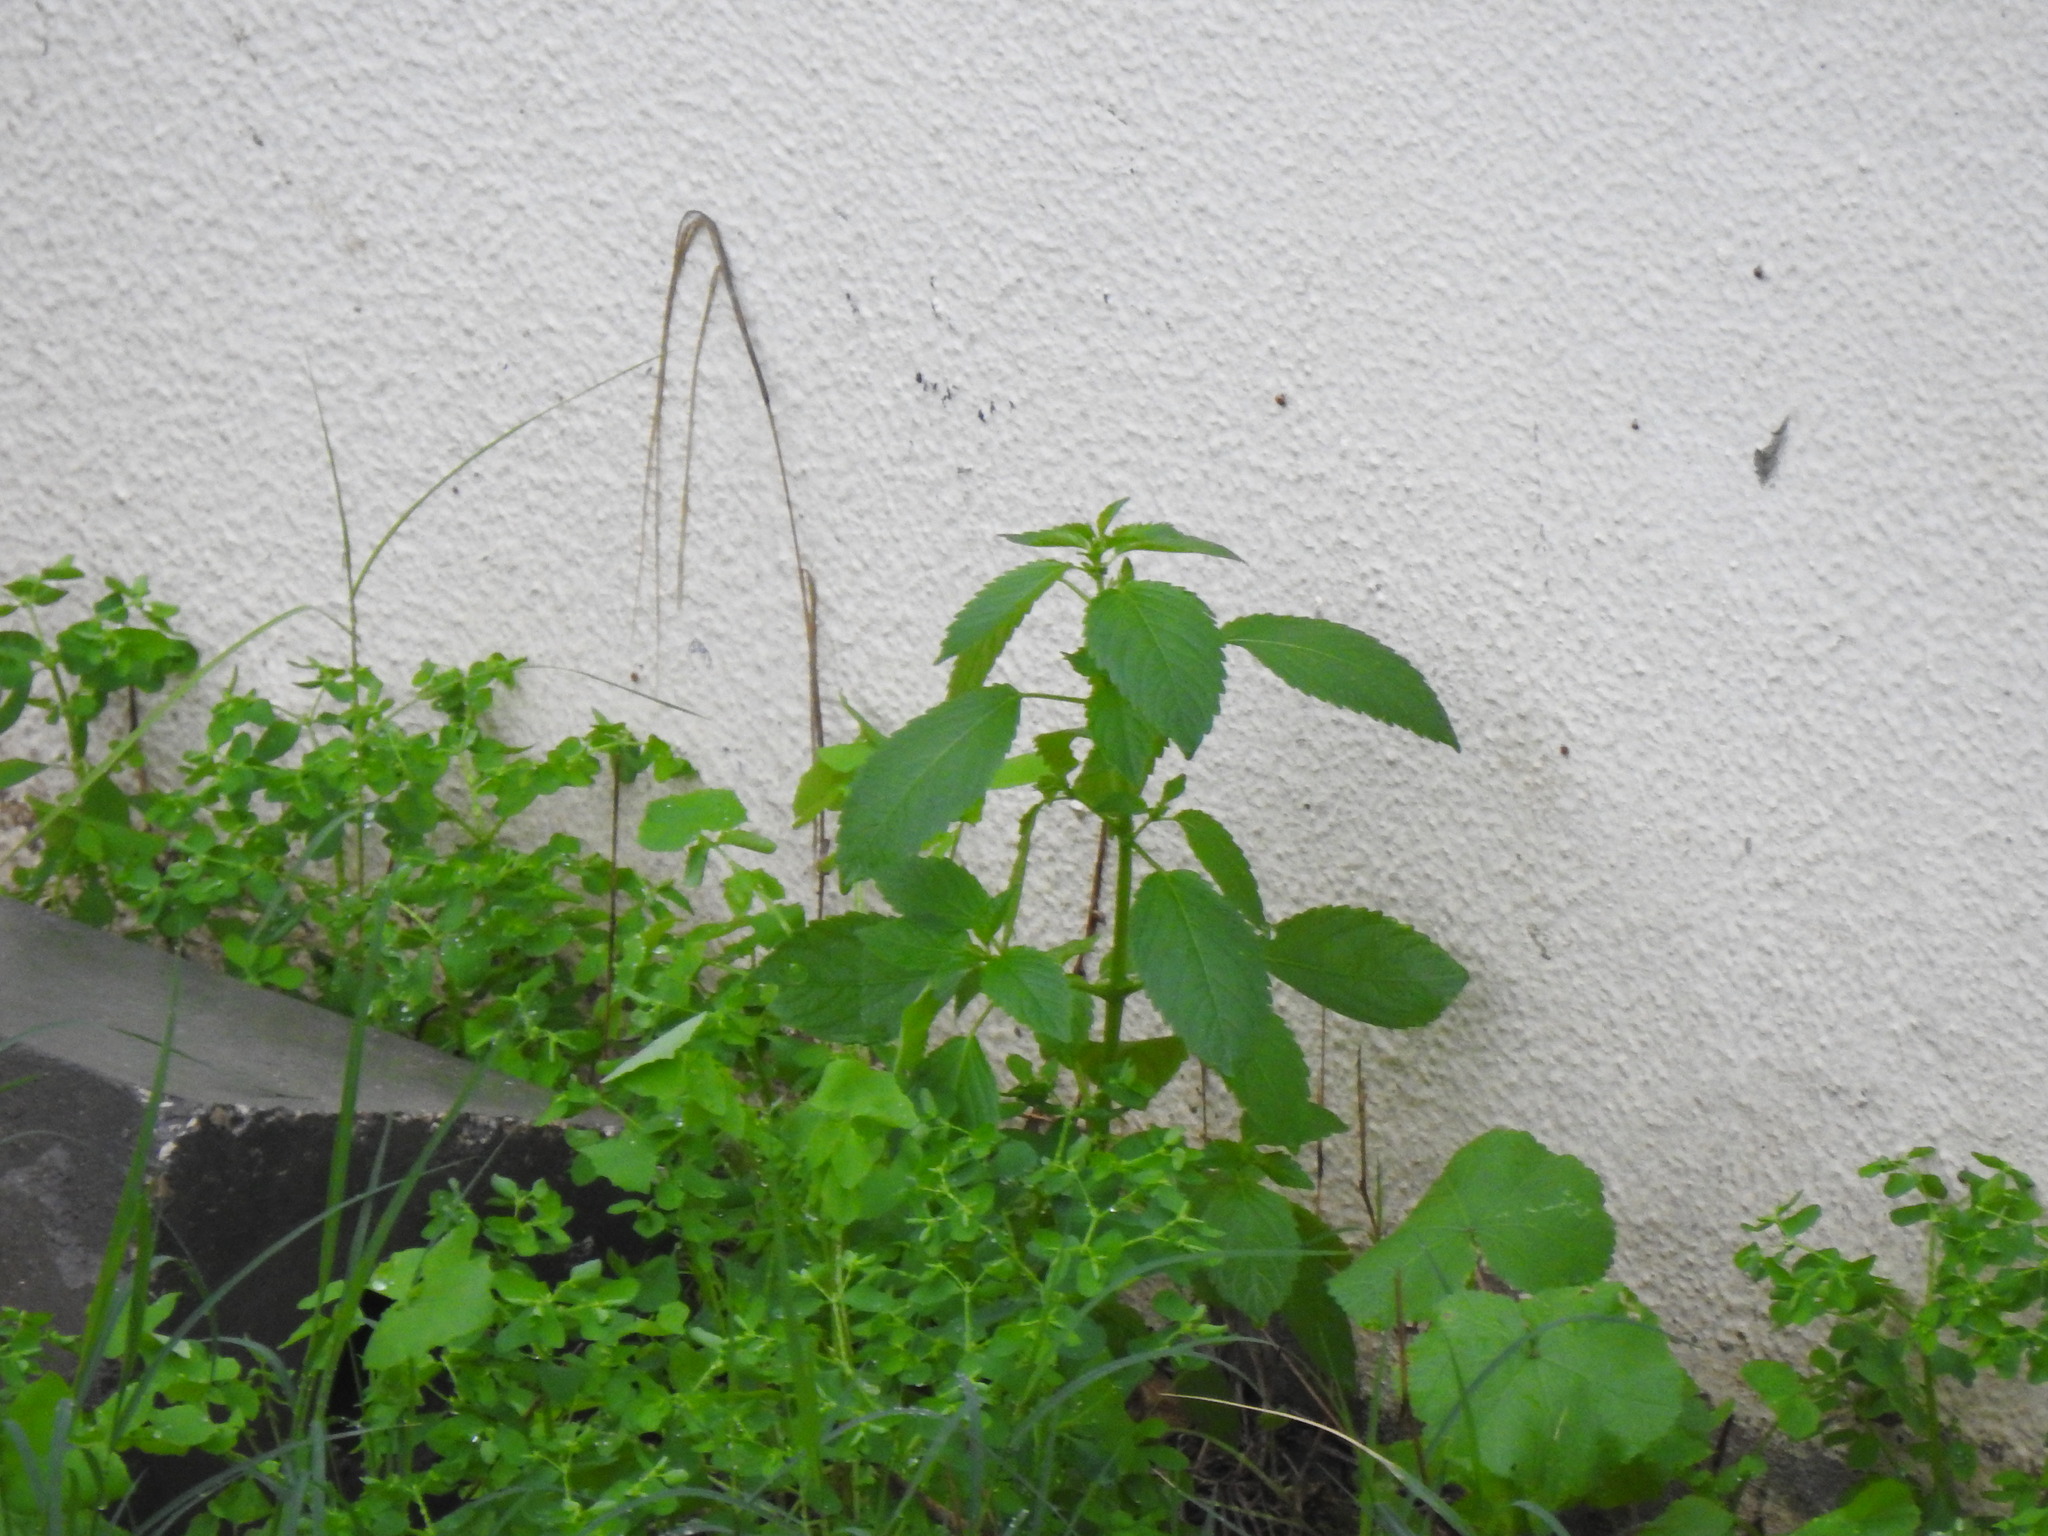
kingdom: Plantae
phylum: Tracheophyta
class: Magnoliopsida
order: Malpighiales
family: Euphorbiaceae
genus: Mercurialis
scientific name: Mercurialis annua
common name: Annual mercury
